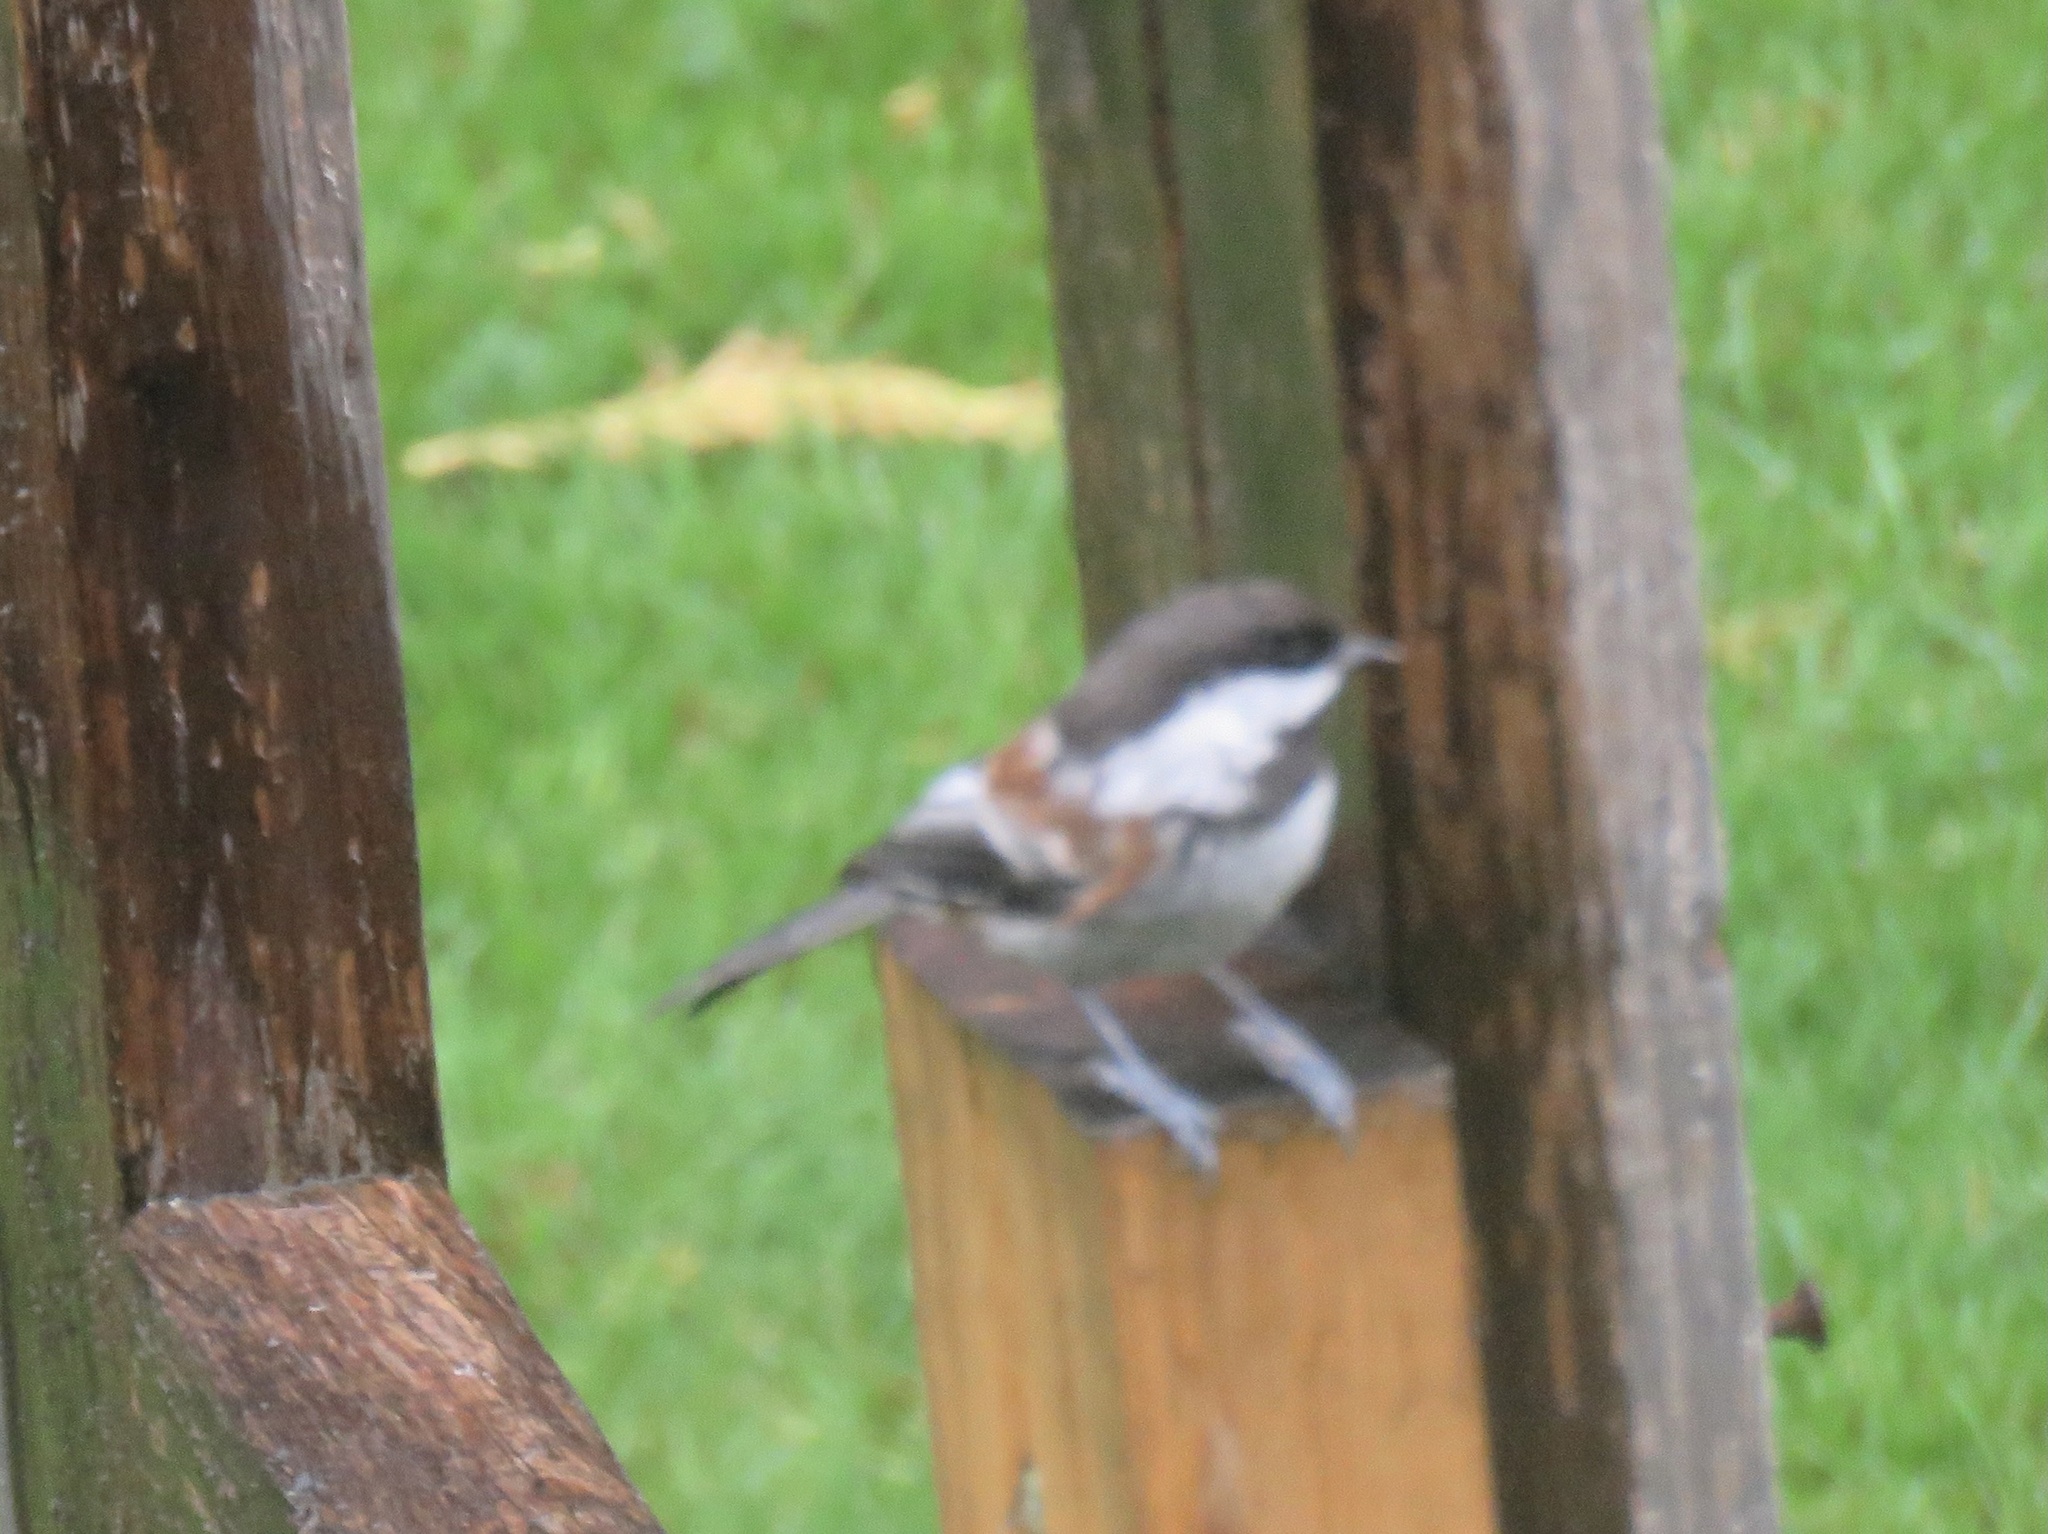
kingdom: Animalia
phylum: Chordata
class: Aves
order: Passeriformes
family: Paridae
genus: Poecile
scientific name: Poecile rufescens
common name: Chestnut-backed chickadee
